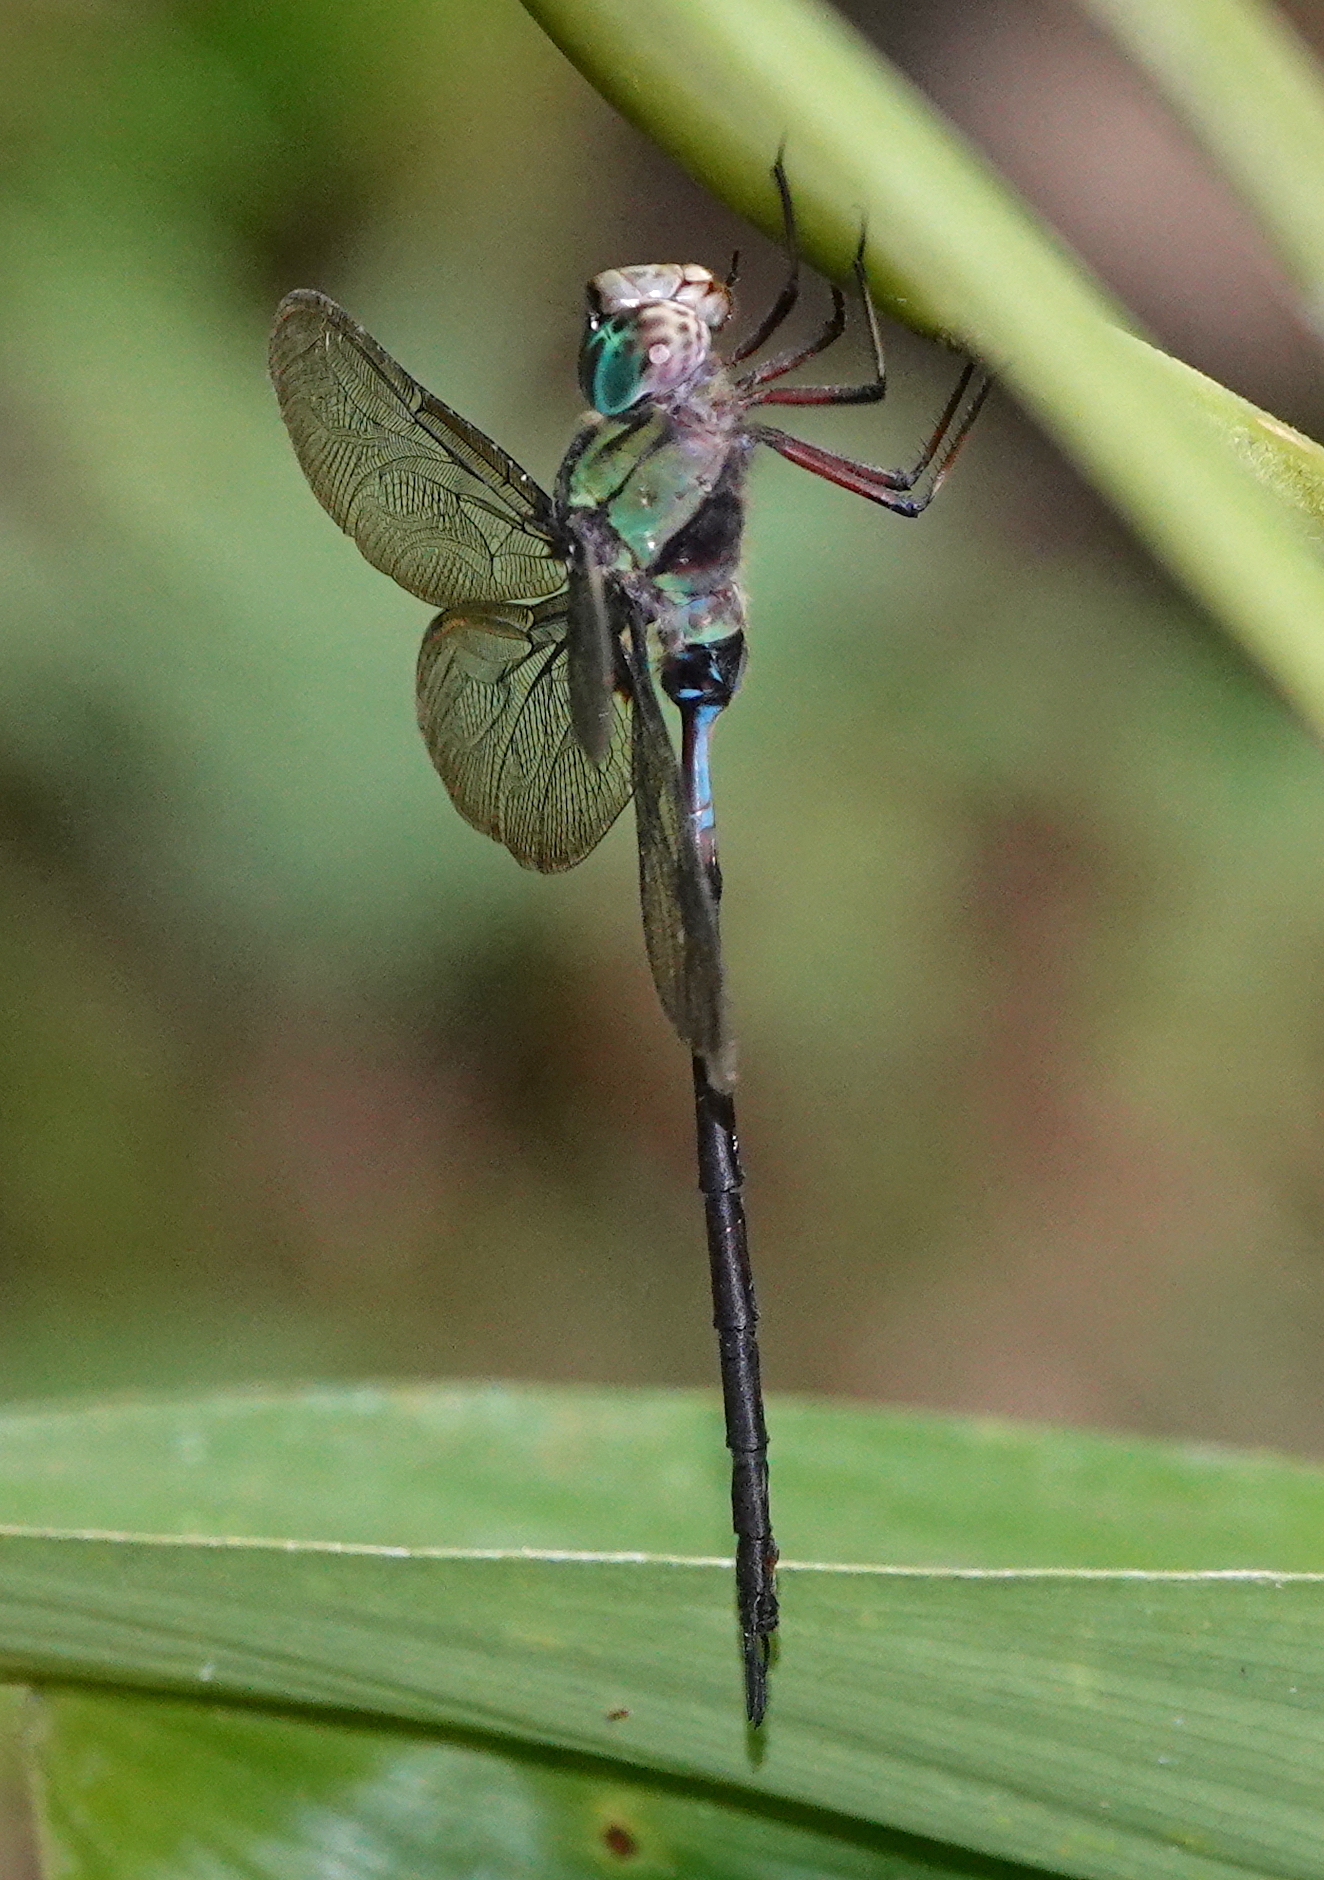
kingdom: Animalia
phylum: Arthropoda
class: Insecta
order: Odonata
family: Aeshnidae
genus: Gynacantha
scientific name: Gynacantha membranalis
